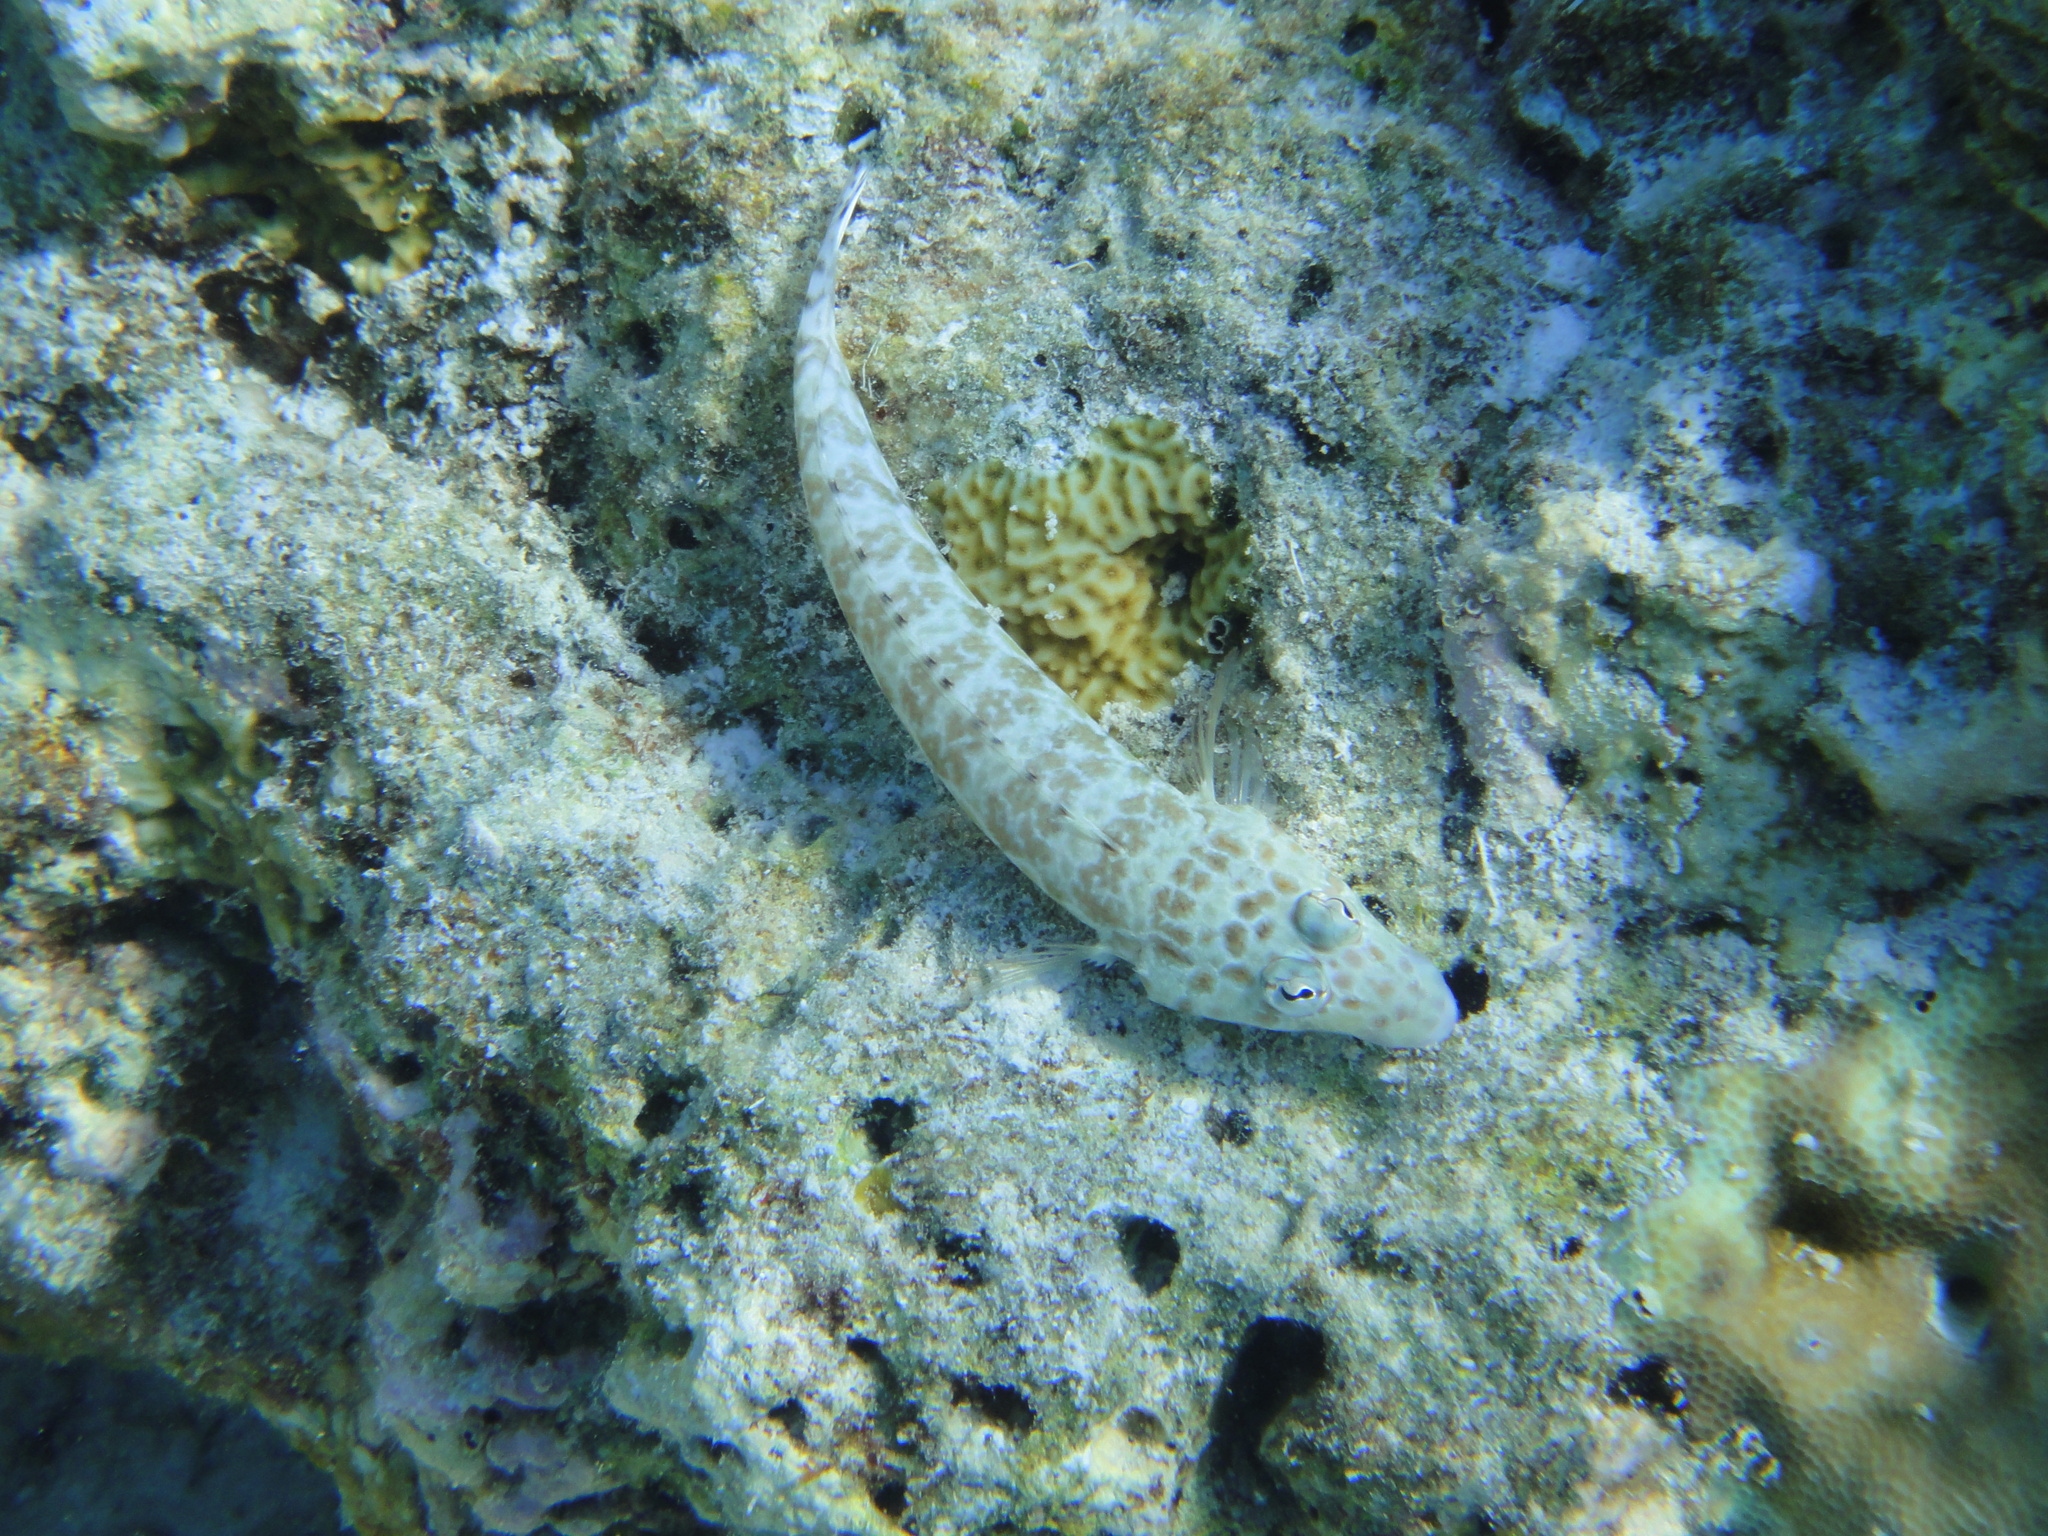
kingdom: Animalia
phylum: Chordata
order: Perciformes
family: Pinguipedidae
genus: Parapercis
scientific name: Parapercis millepunctata
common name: Black-dotted sandperch
